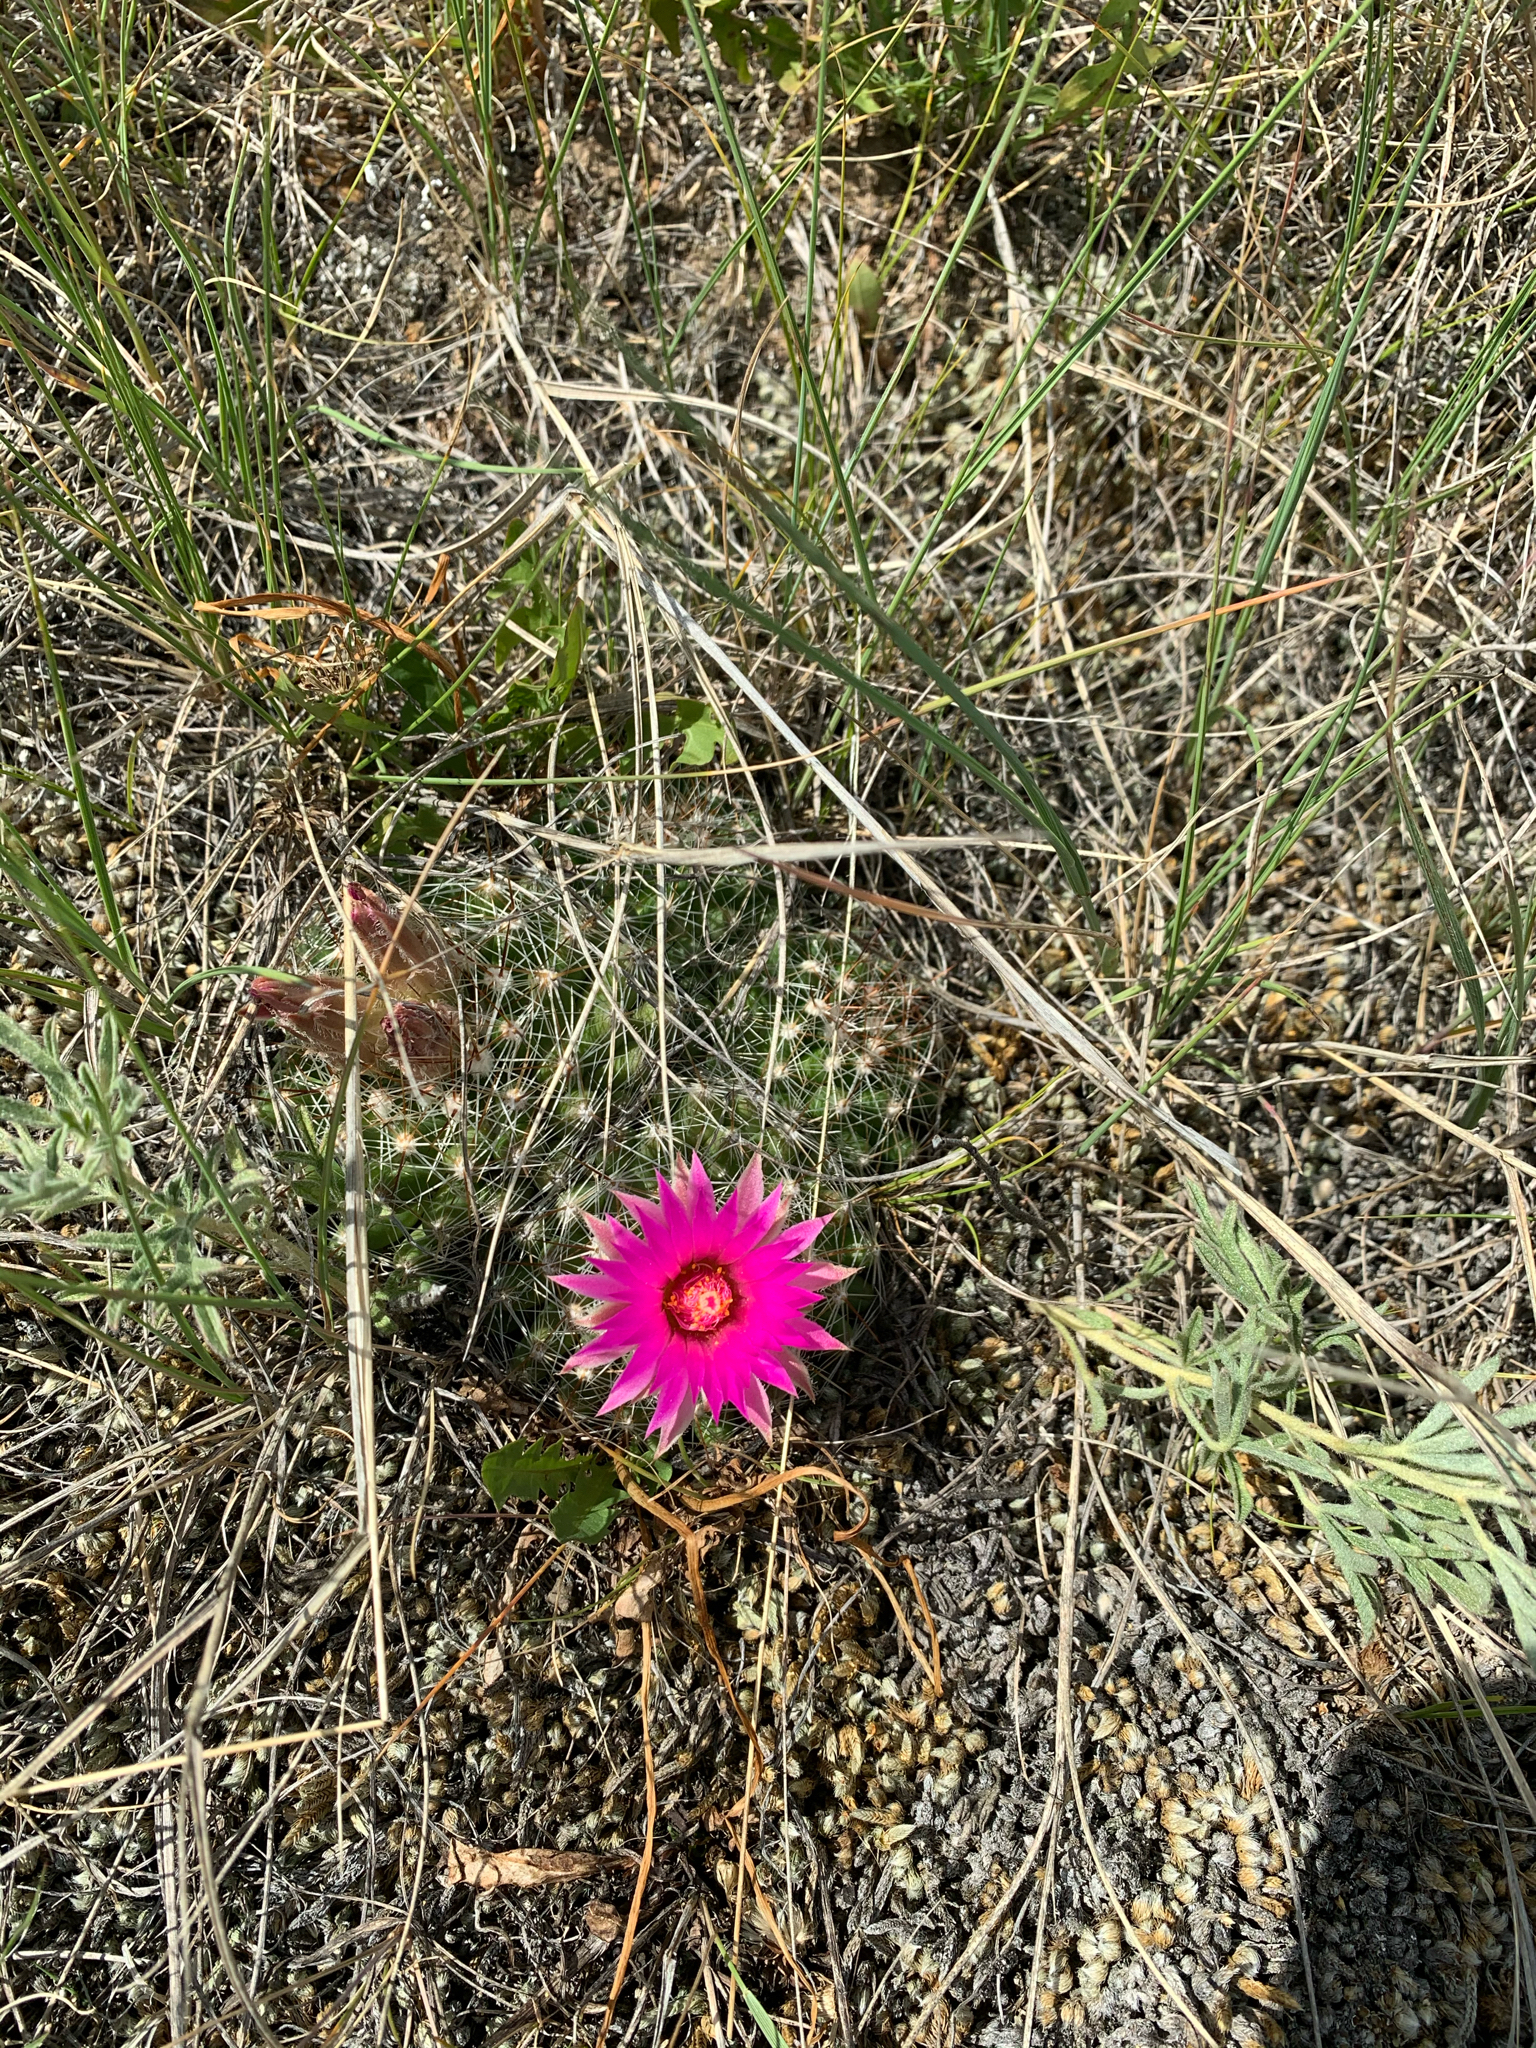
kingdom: Plantae
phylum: Tracheophyta
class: Magnoliopsida
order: Caryophyllales
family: Cactaceae
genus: Pelecyphora
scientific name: Pelecyphora vivipara
